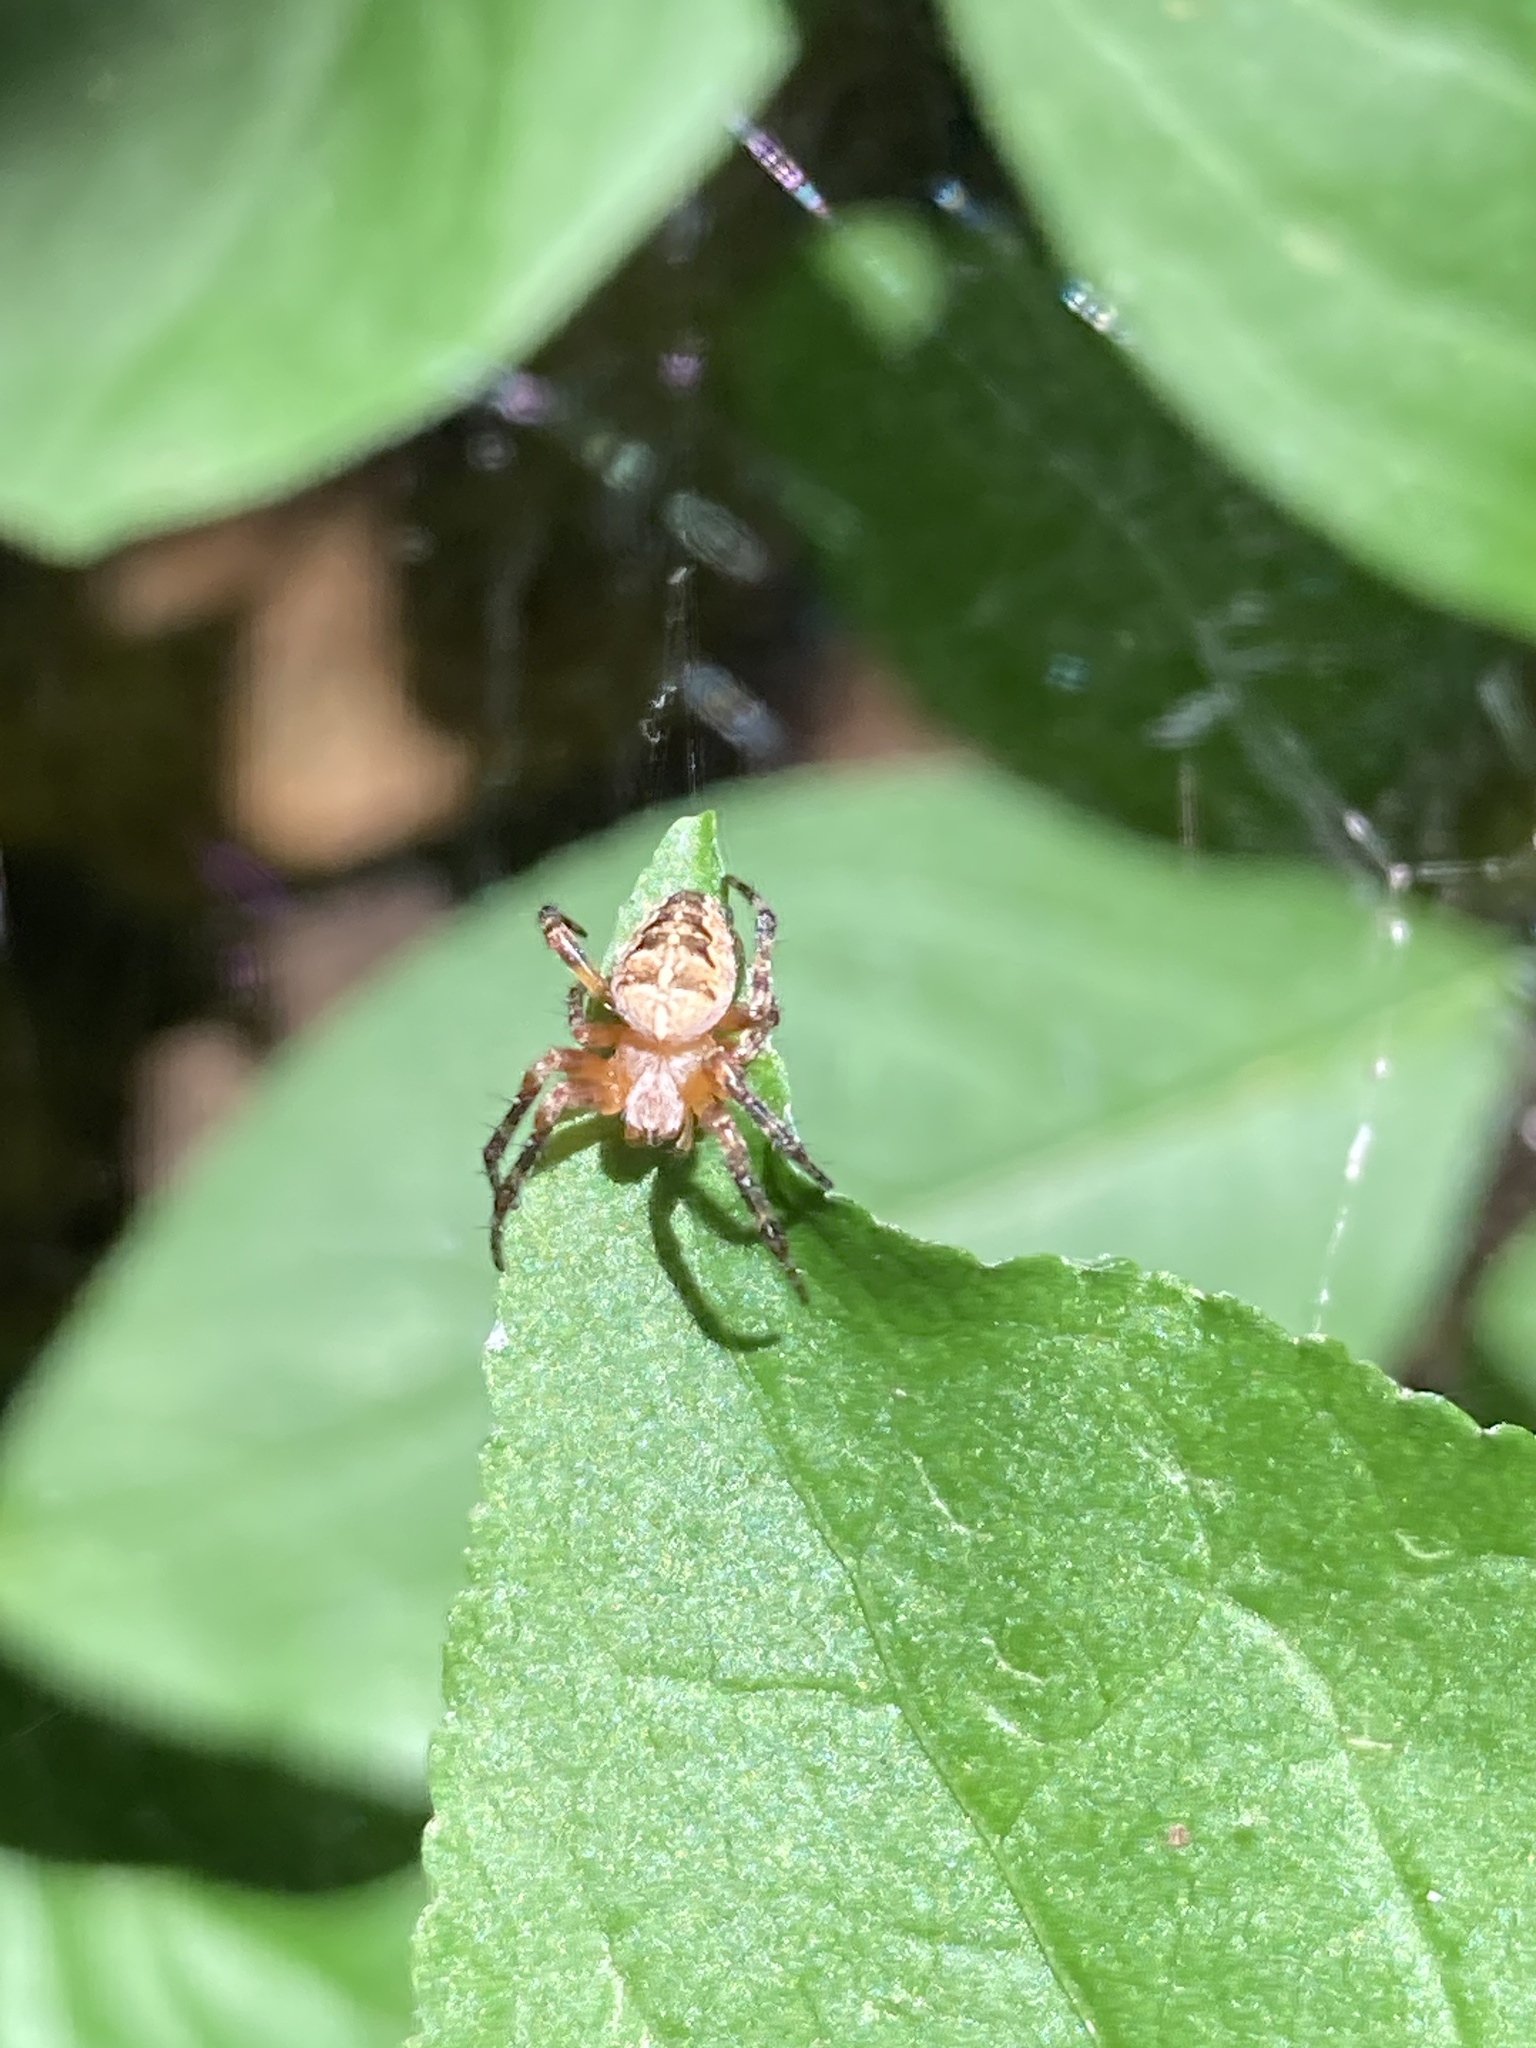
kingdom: Animalia
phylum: Arthropoda
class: Arachnida
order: Araneae
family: Araneidae
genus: Araneus
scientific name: Araneus diadematus
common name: Cross orbweaver
